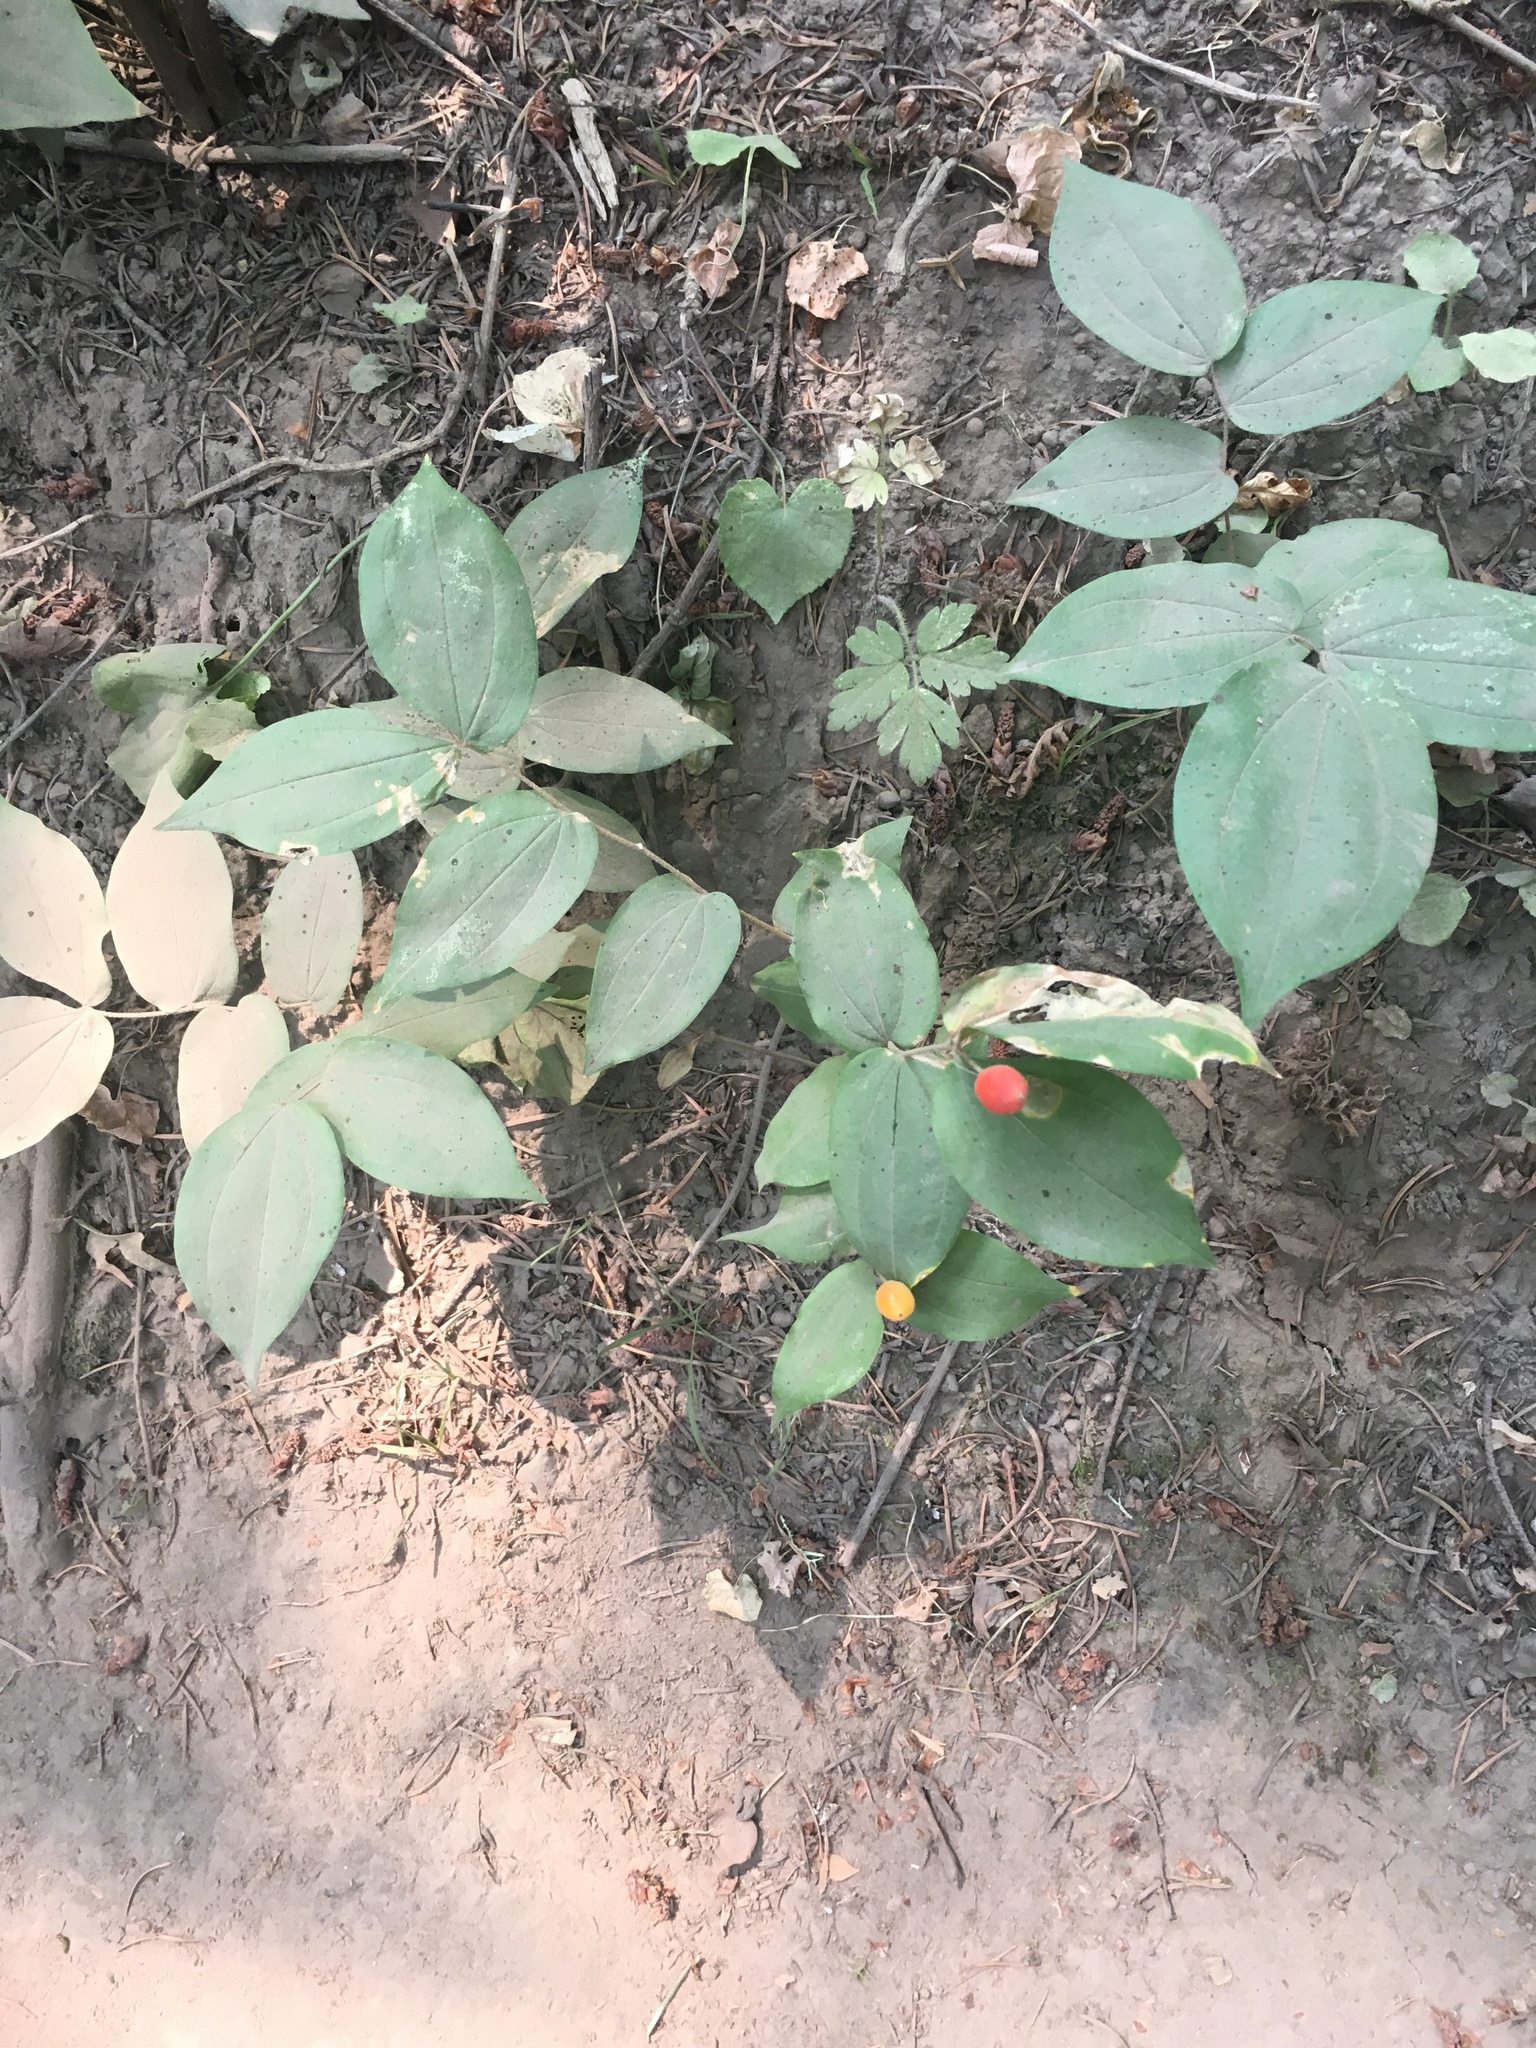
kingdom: Plantae
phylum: Tracheophyta
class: Liliopsida
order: Liliales
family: Liliaceae
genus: Prosartes
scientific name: Prosartes hookeri
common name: Fairy-bells
